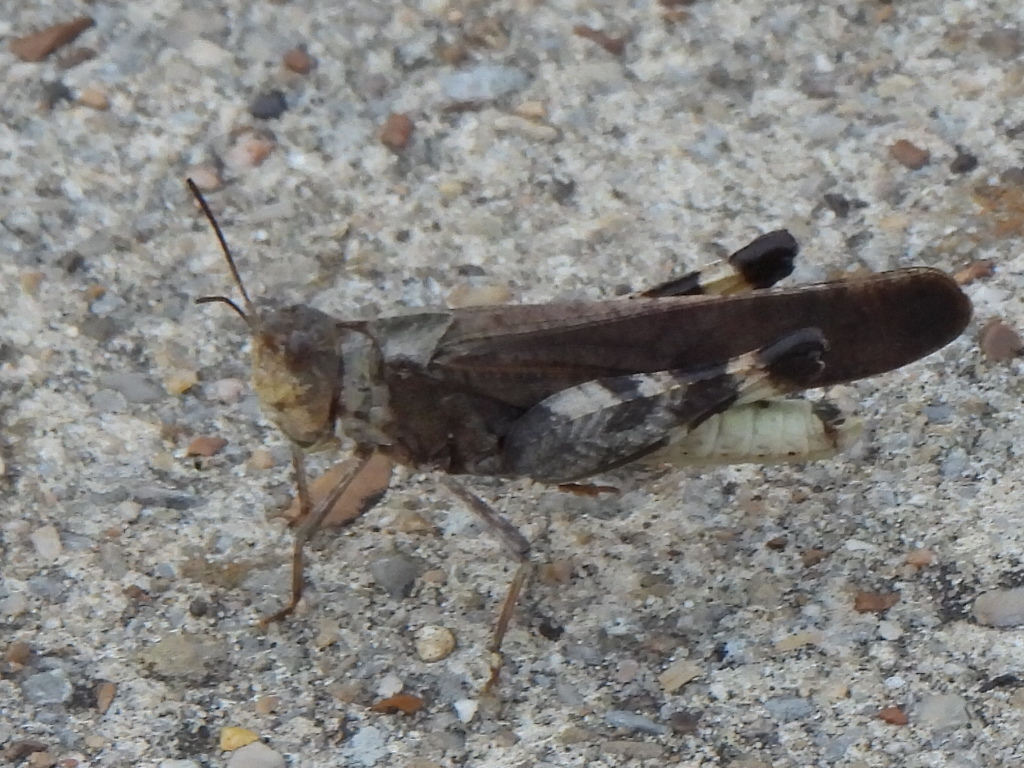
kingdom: Animalia
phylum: Arthropoda
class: Insecta
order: Orthoptera
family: Acrididae
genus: Arphia
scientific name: Arphia simplex
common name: Plains yellow-winged grasshopper
